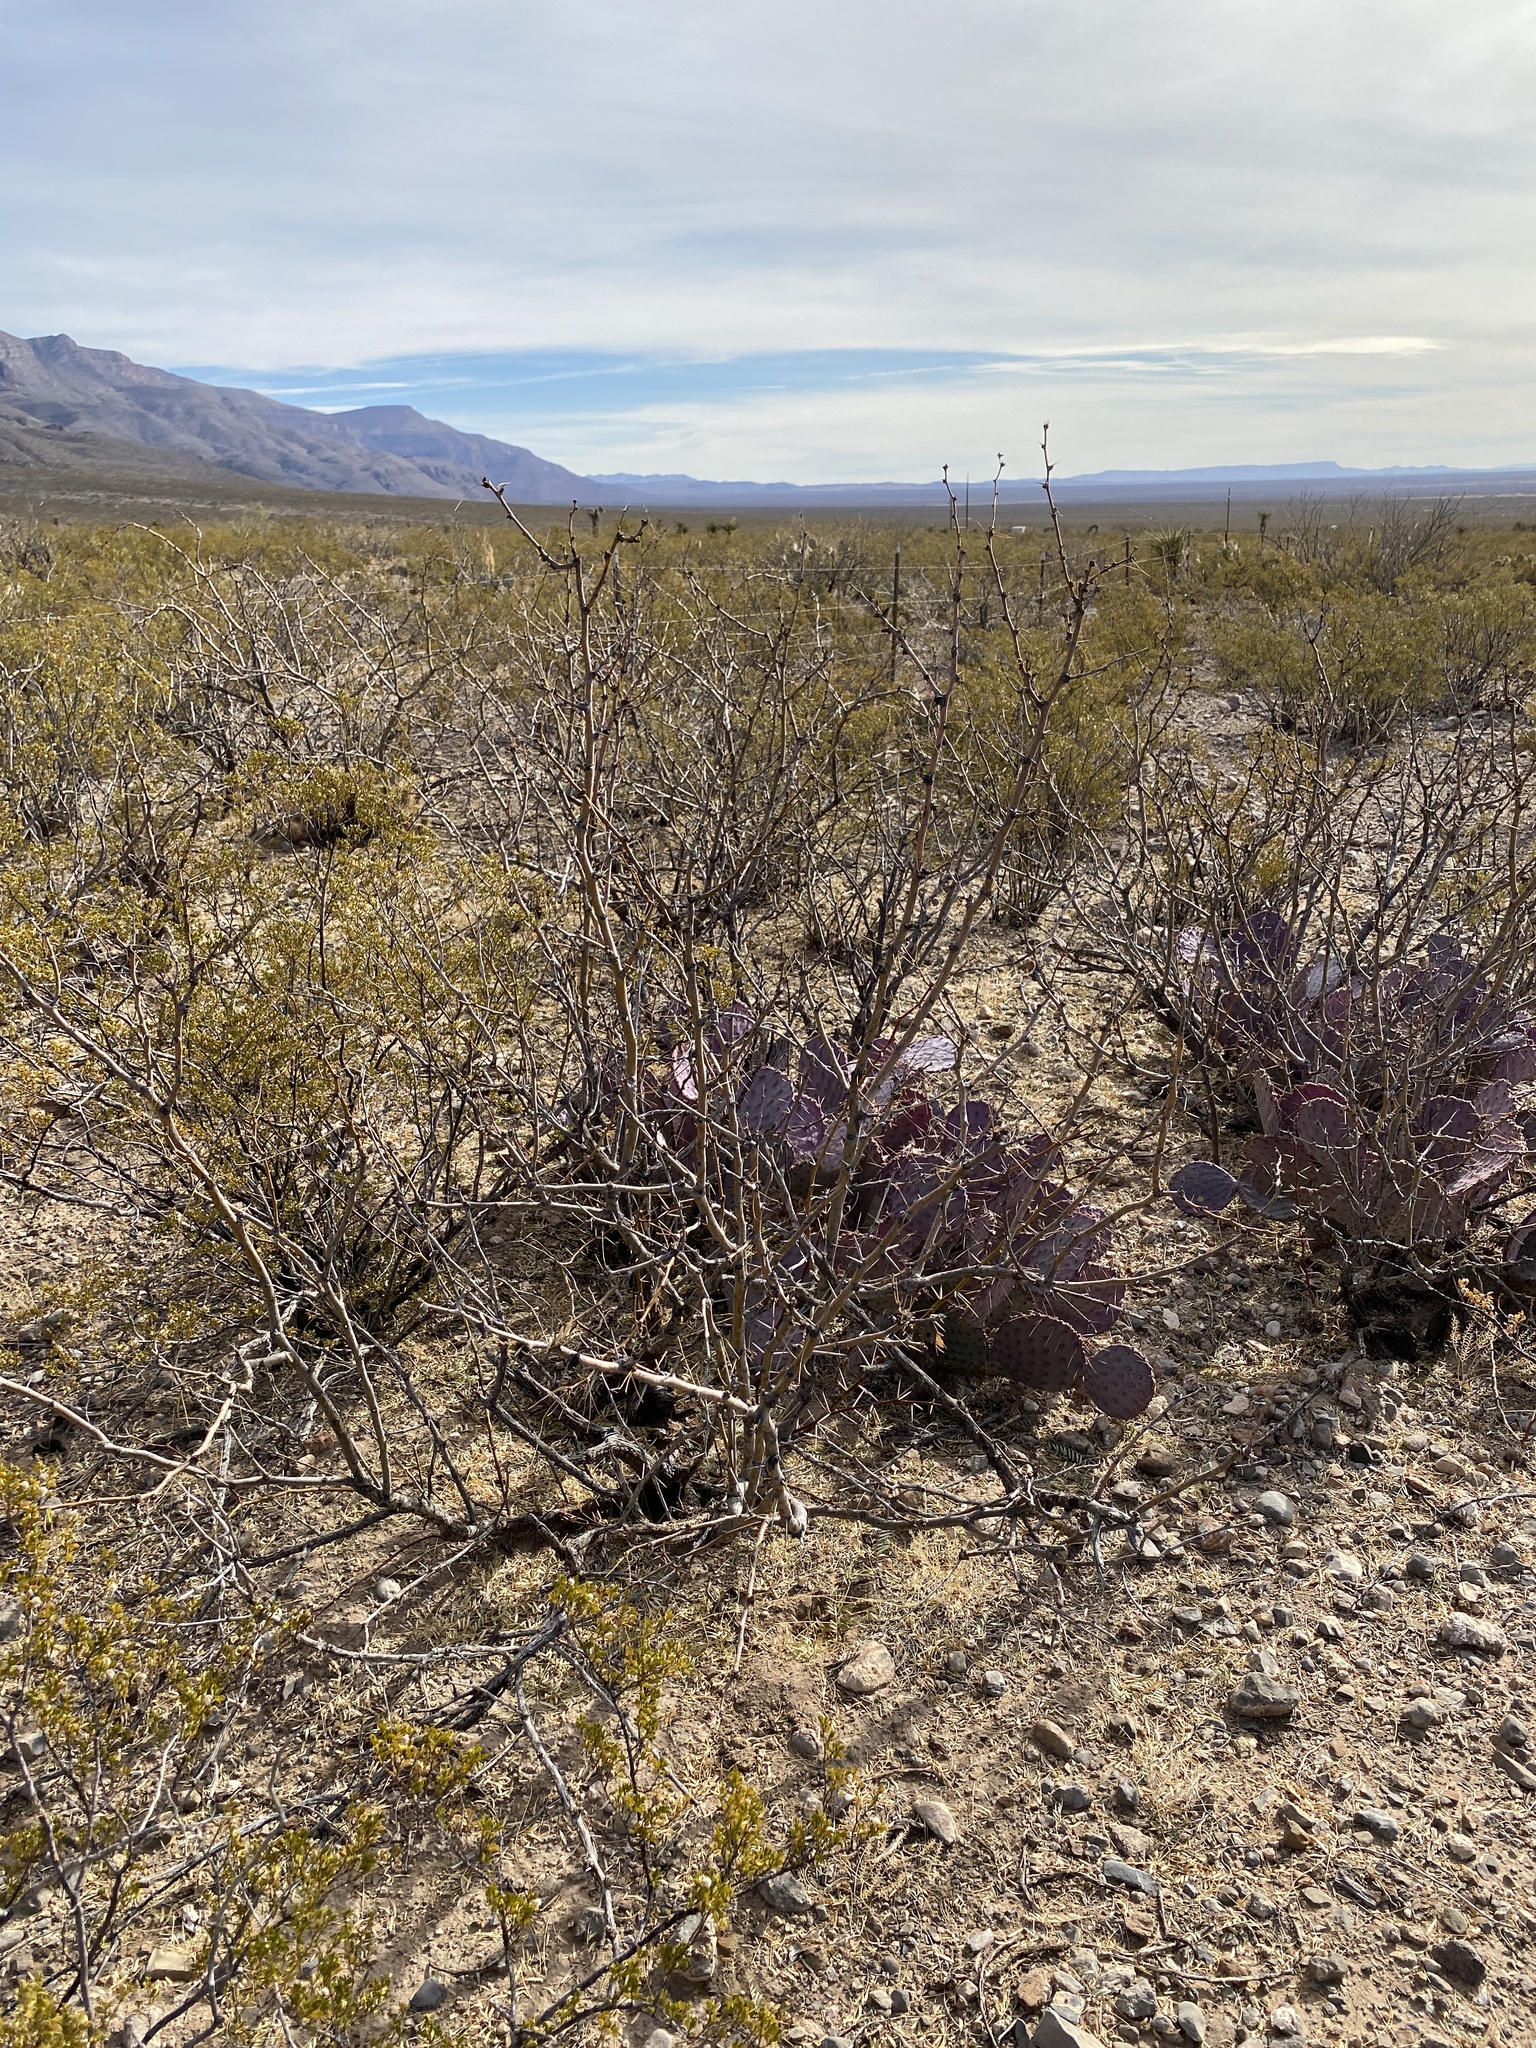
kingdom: Plantae
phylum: Tracheophyta
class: Magnoliopsida
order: Zygophyllales
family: Zygophyllaceae
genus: Larrea
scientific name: Larrea tridentata
